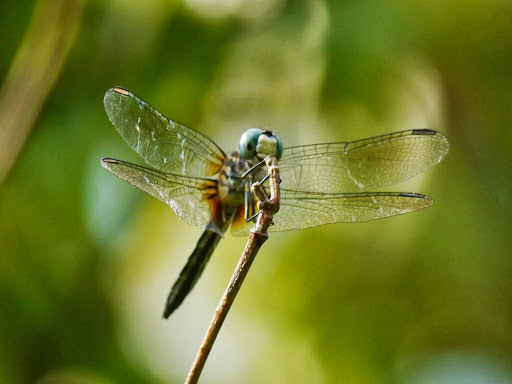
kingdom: Animalia
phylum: Arthropoda
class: Insecta
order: Odonata
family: Libellulidae
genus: Pachydiplax
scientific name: Pachydiplax longipennis
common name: Blue dasher
